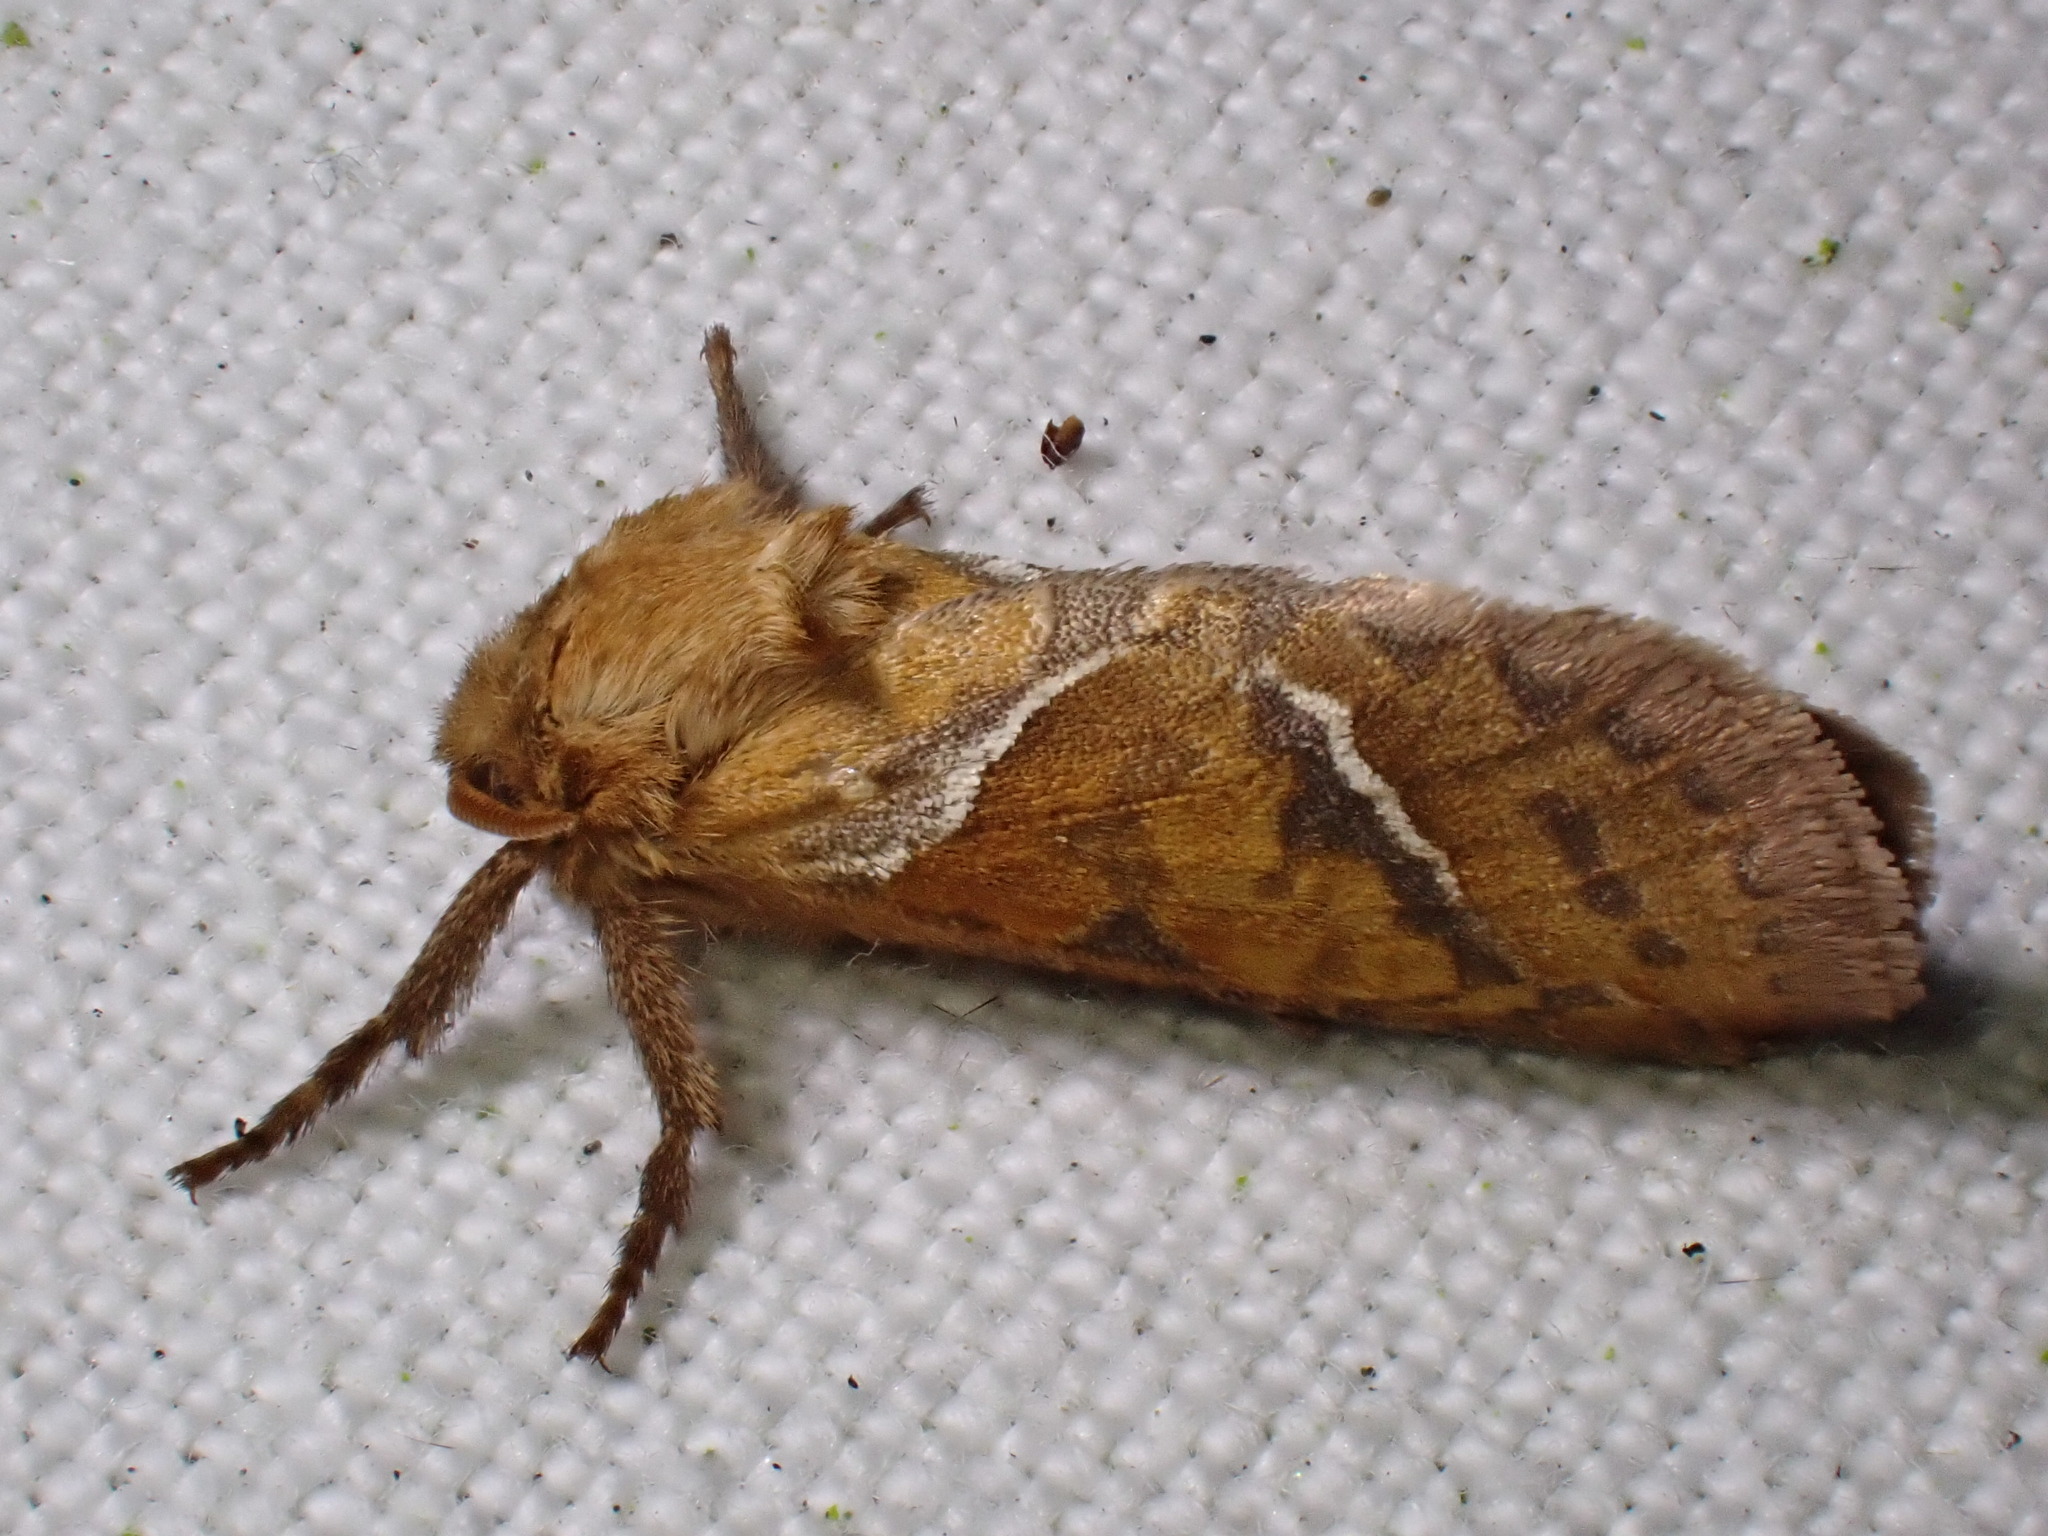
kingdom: Animalia
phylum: Arthropoda
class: Insecta
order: Lepidoptera
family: Hepialidae
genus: Triodia
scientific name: Triodia sylvina
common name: Orange swift
